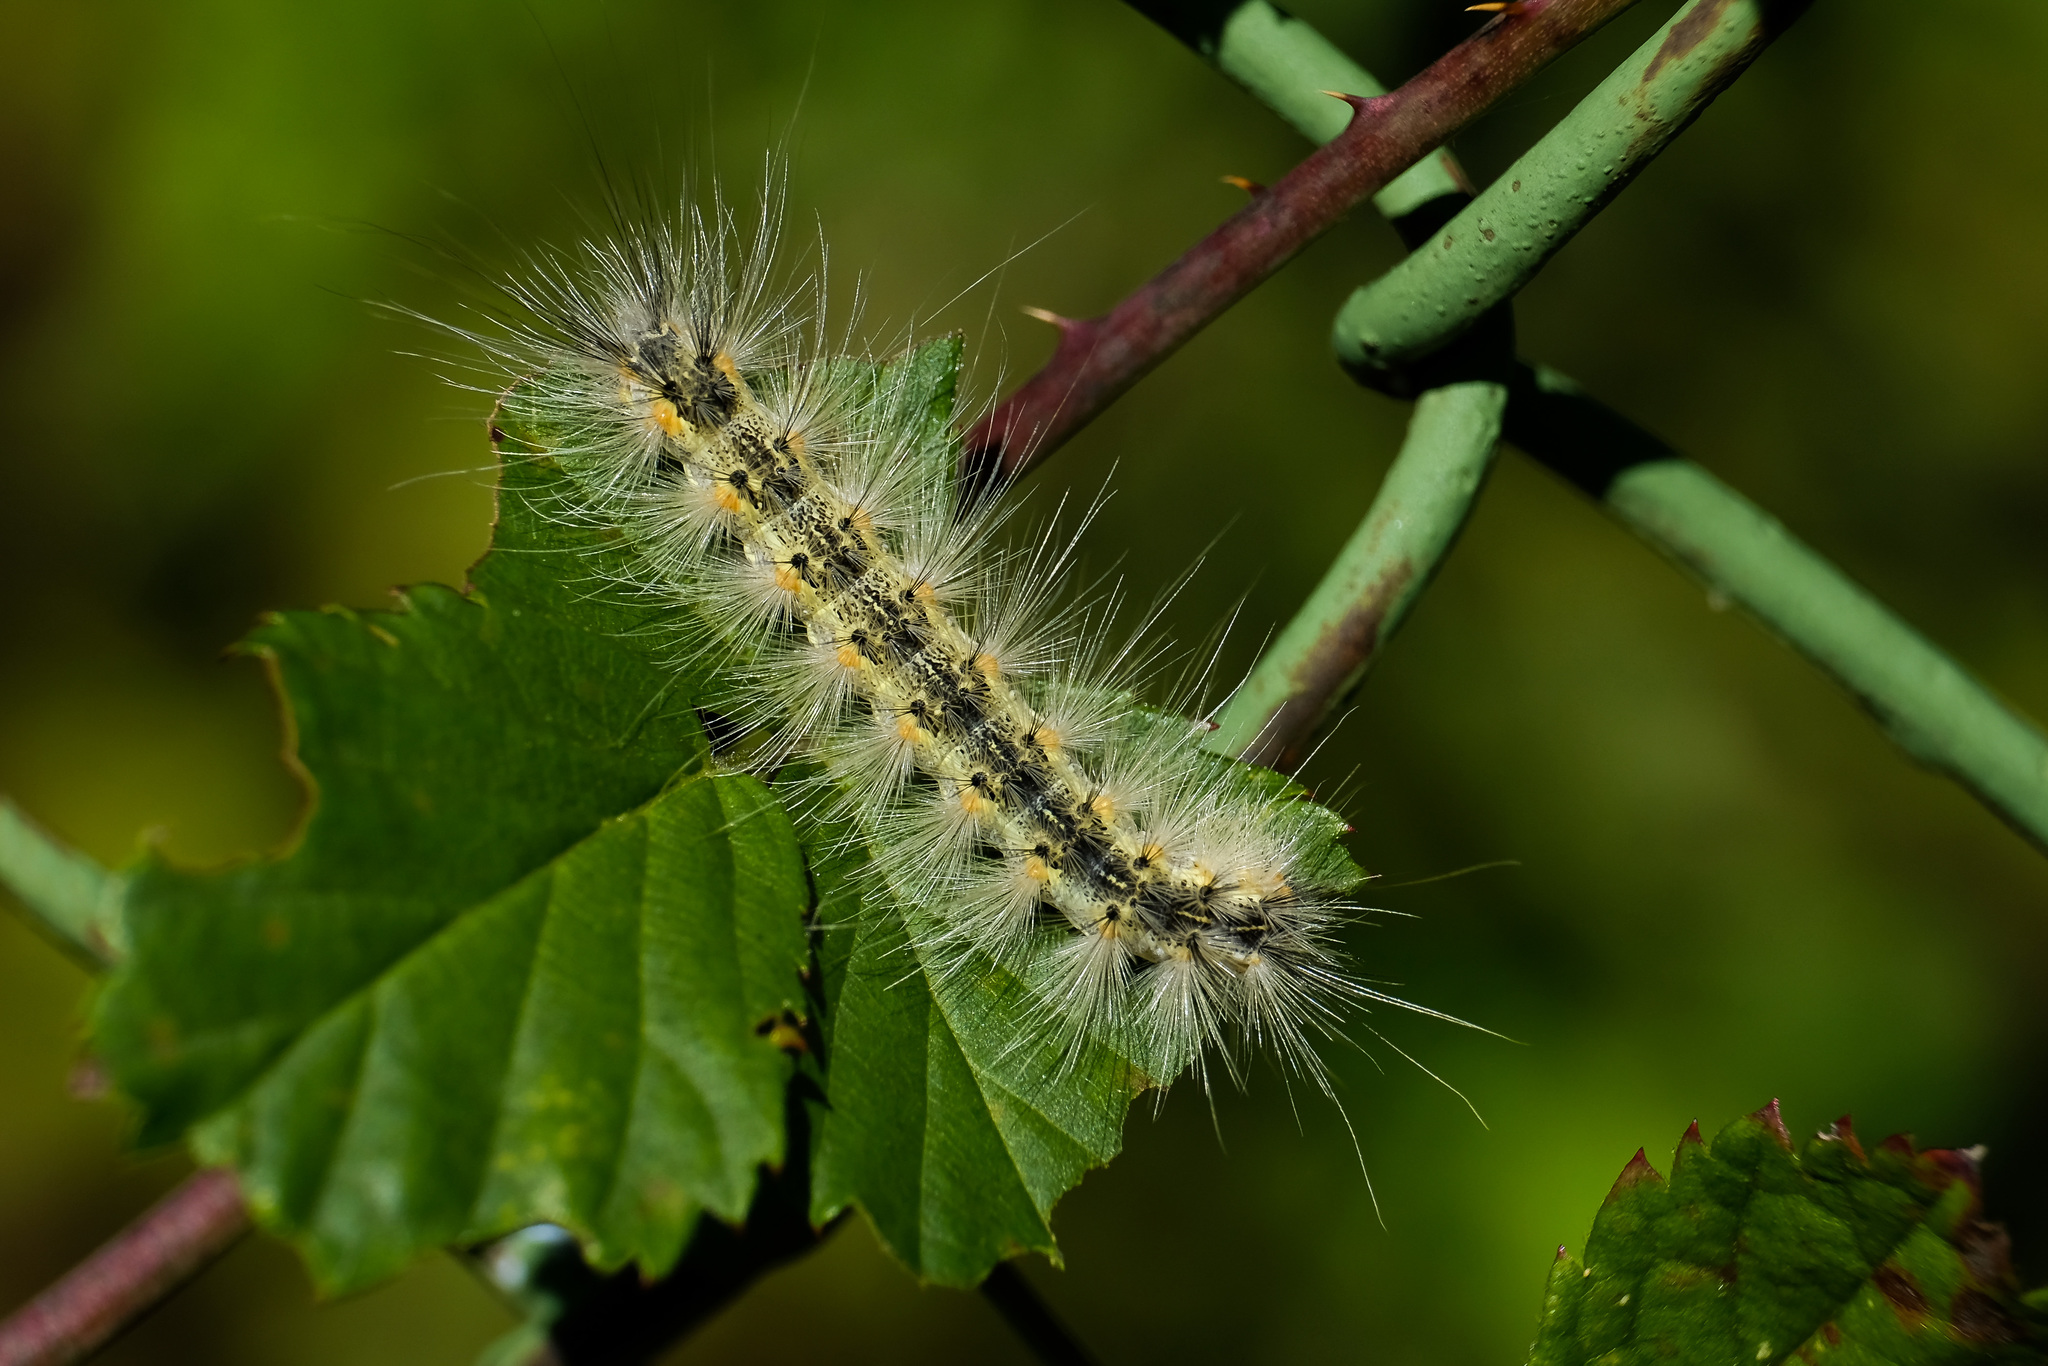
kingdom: Animalia
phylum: Arthropoda
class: Insecta
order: Lepidoptera
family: Erebidae
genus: Hyphantria
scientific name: Hyphantria cunea
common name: American white moth
